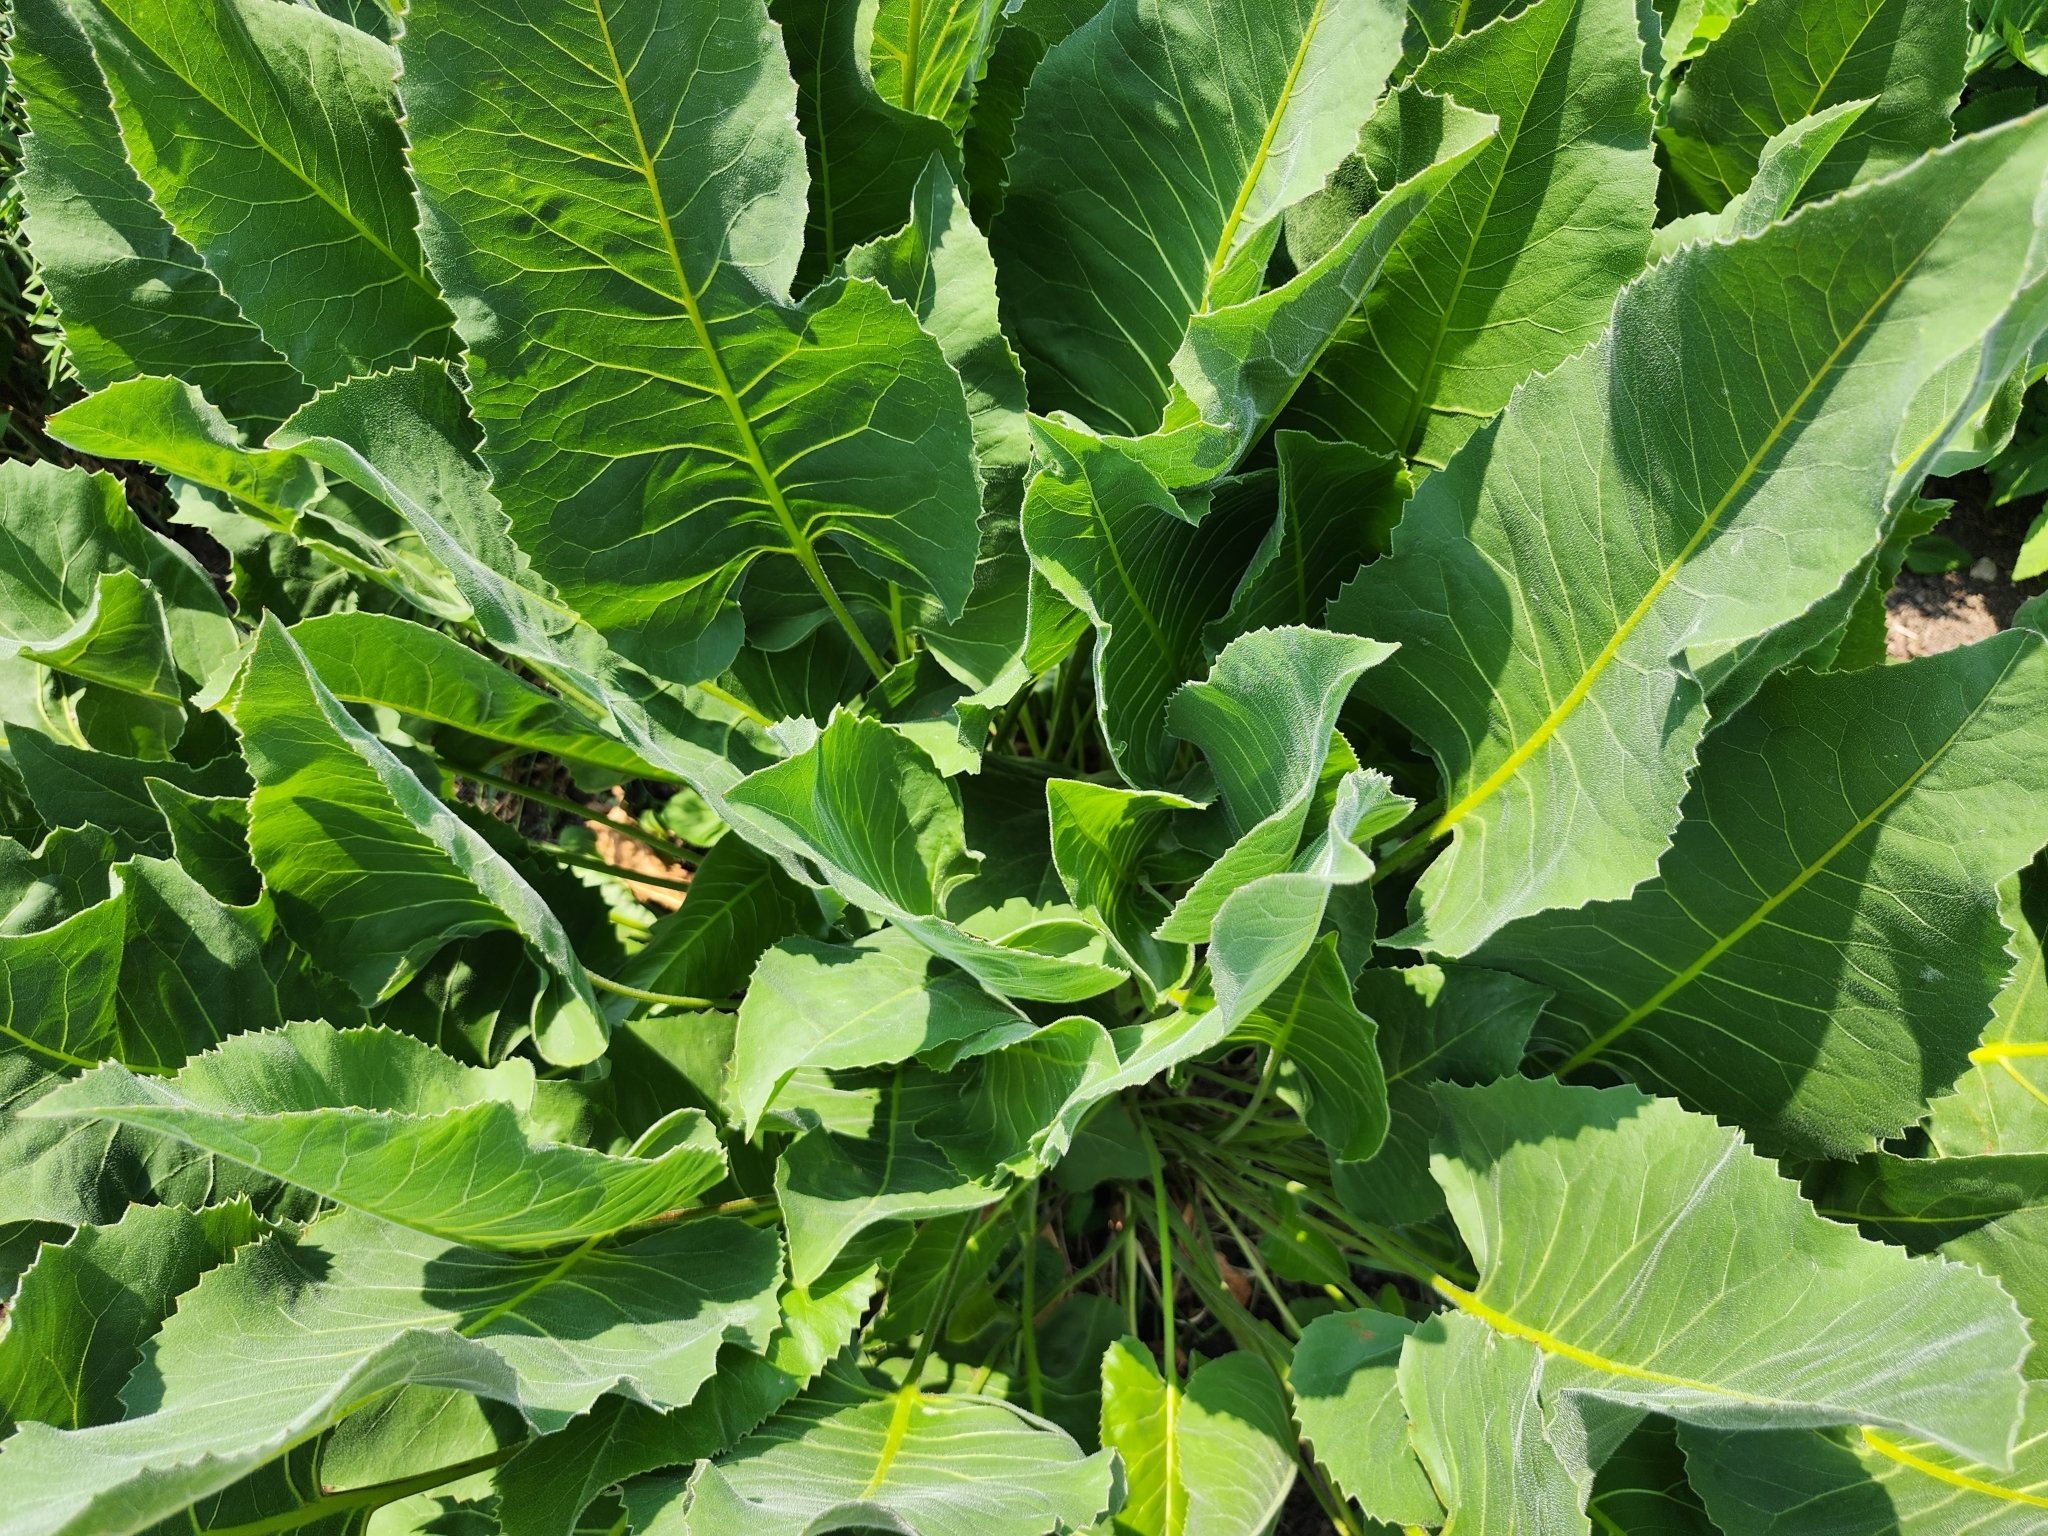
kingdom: Plantae
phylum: Tracheophyta
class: Magnoliopsida
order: Asterales
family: Asteraceae
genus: Silphium
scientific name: Silphium terebinthinaceum
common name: Basal-leaf rosinweed
